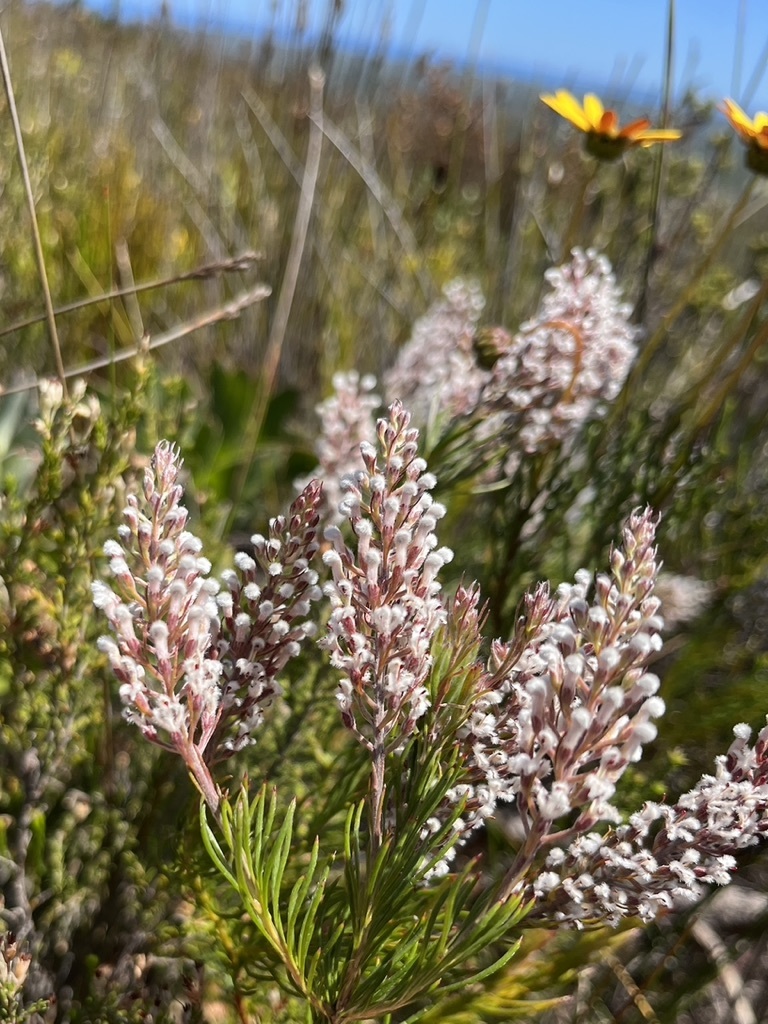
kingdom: Plantae
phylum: Tracheophyta
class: Magnoliopsida
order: Proteales
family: Proteaceae
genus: Spatalla
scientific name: Spatalla curvifolia
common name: White-stalked spoon
